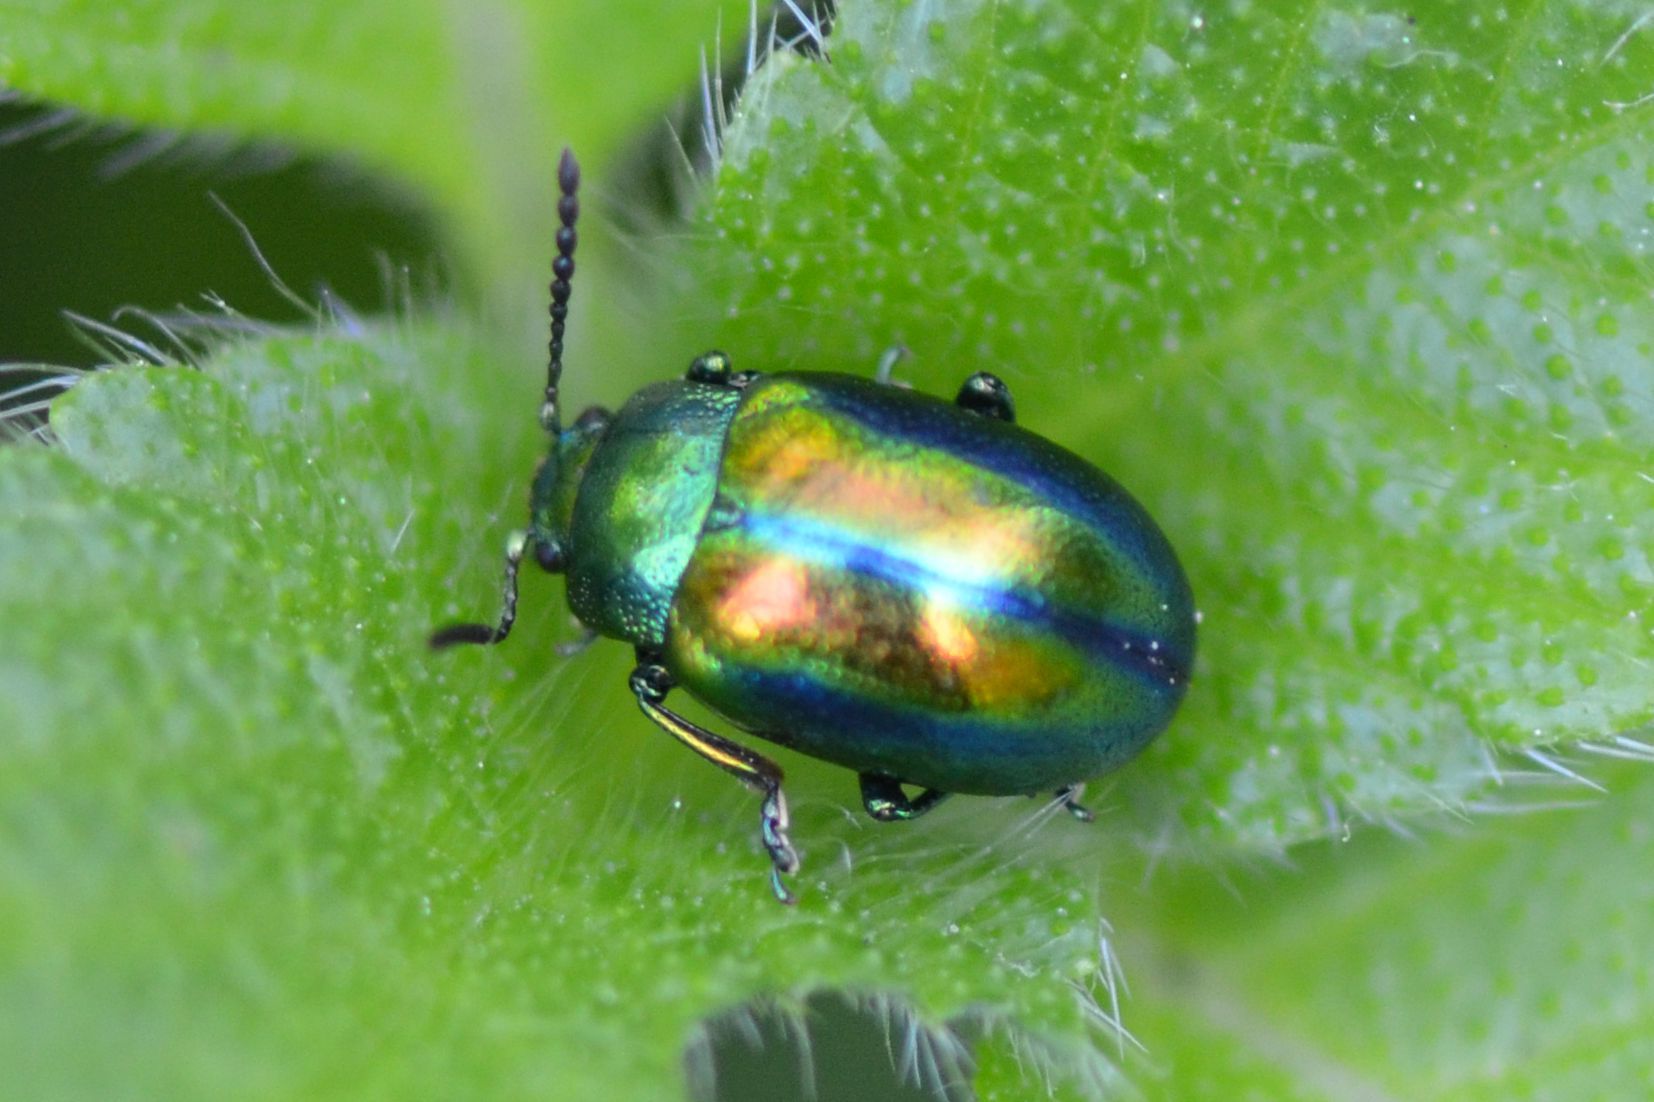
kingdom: Animalia
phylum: Arthropoda
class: Insecta
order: Coleoptera
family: Chrysomelidae
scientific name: Chrysomelidae
